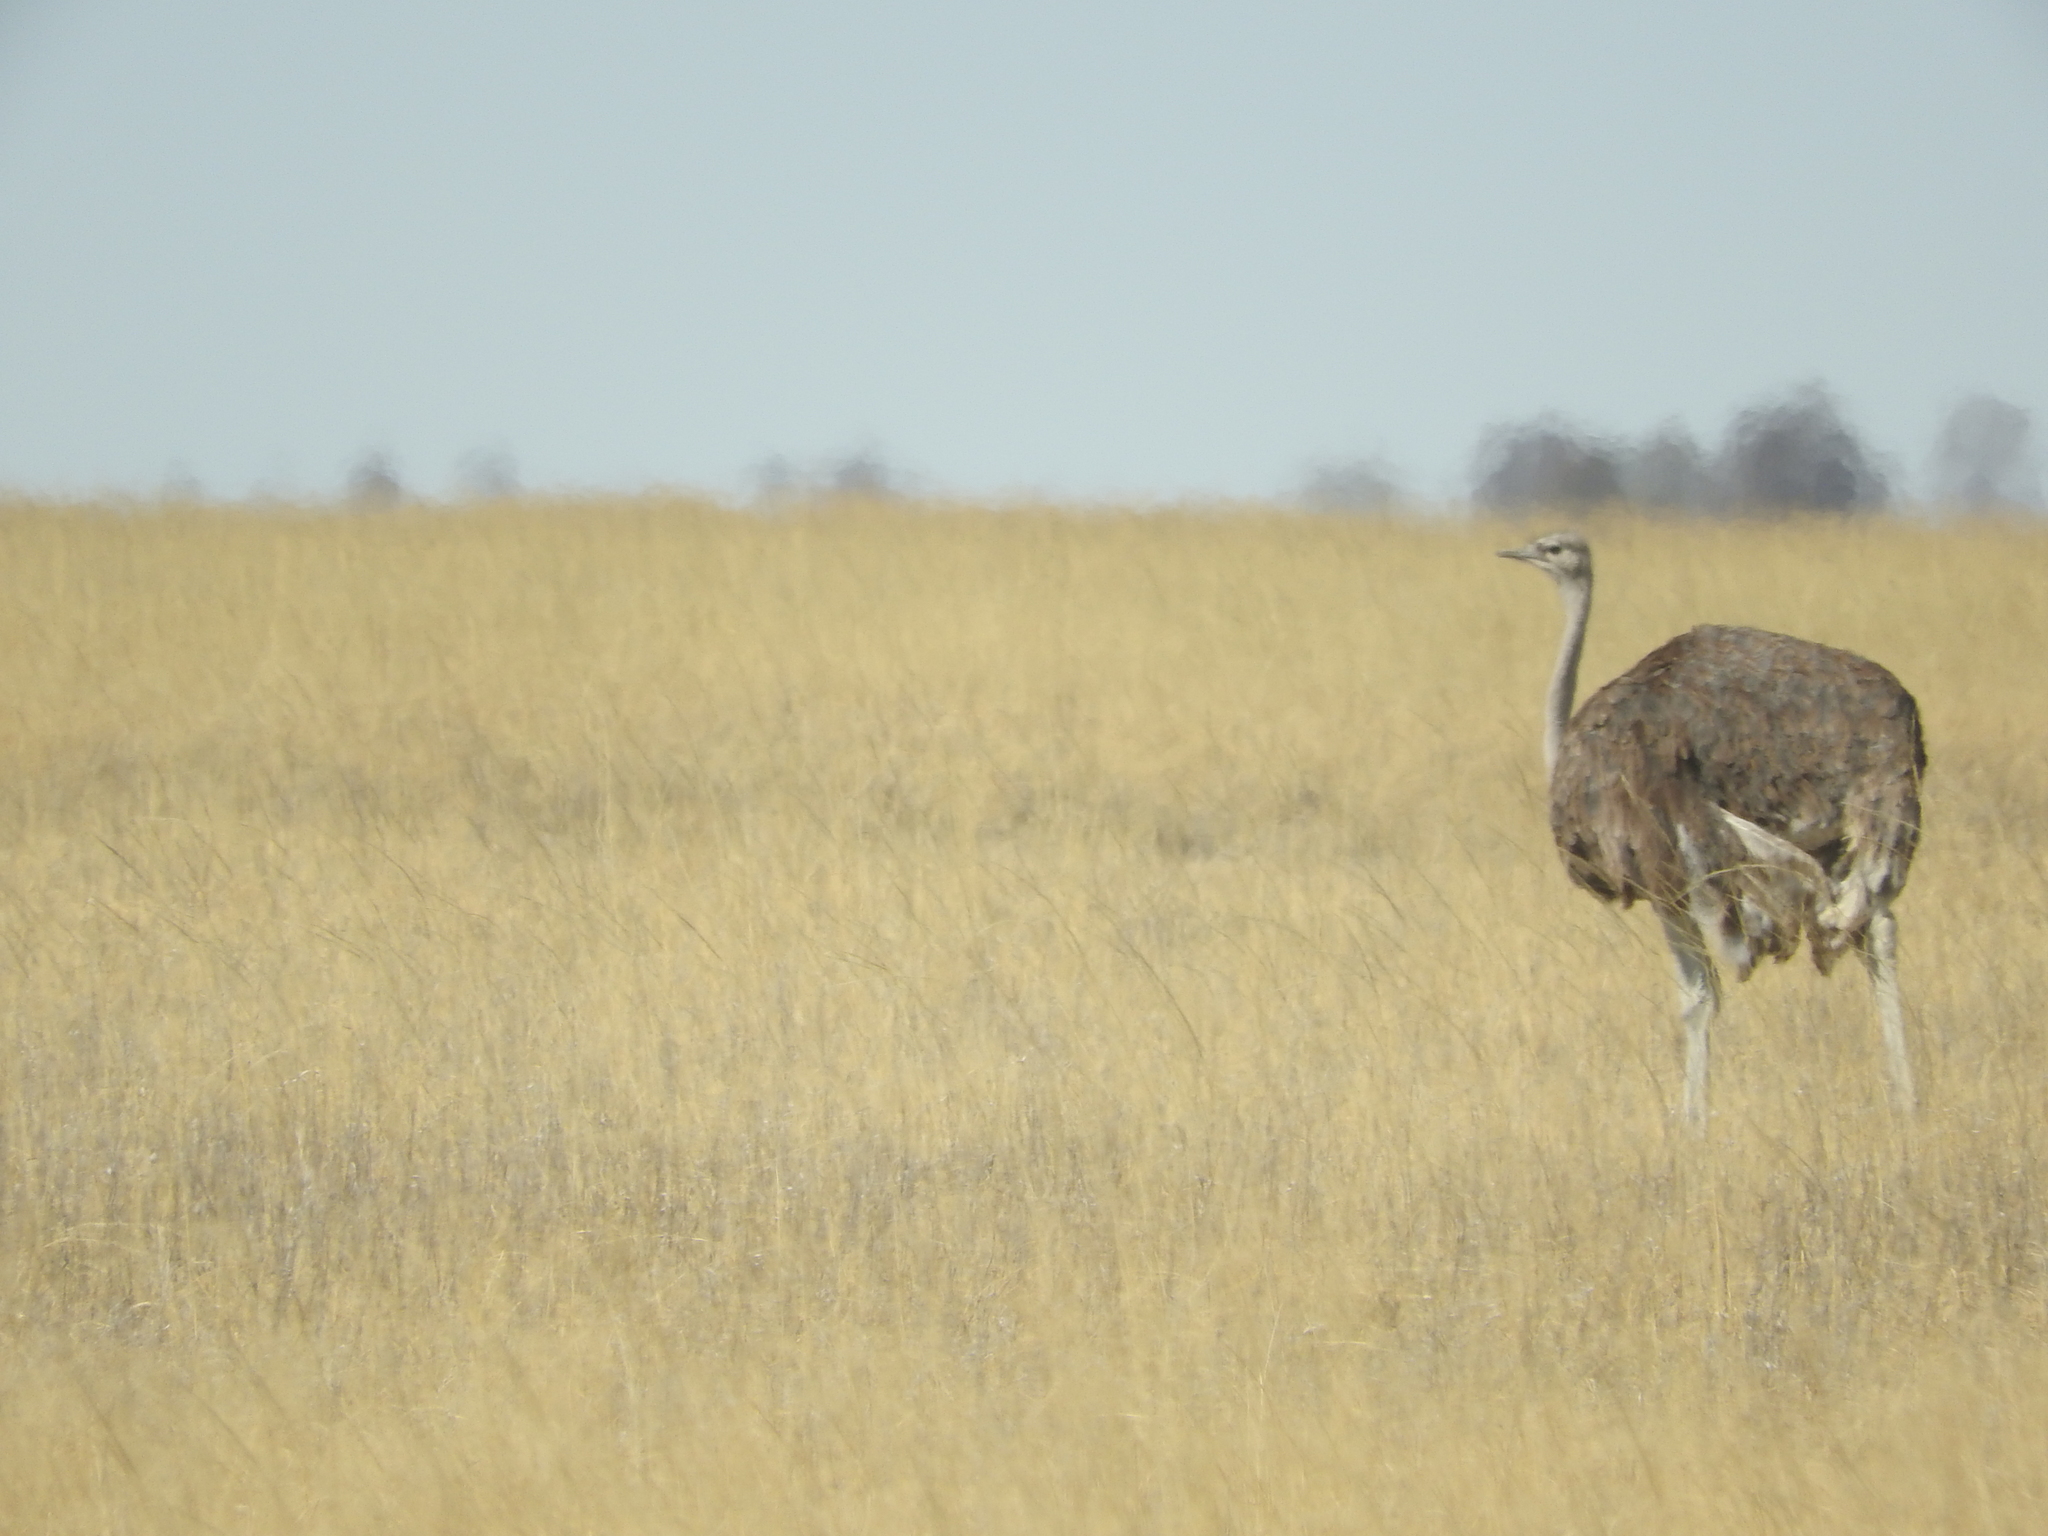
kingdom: Animalia
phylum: Chordata
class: Aves
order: Struthioniformes
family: Struthionidae
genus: Struthio
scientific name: Struthio camelus
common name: Common ostrich
